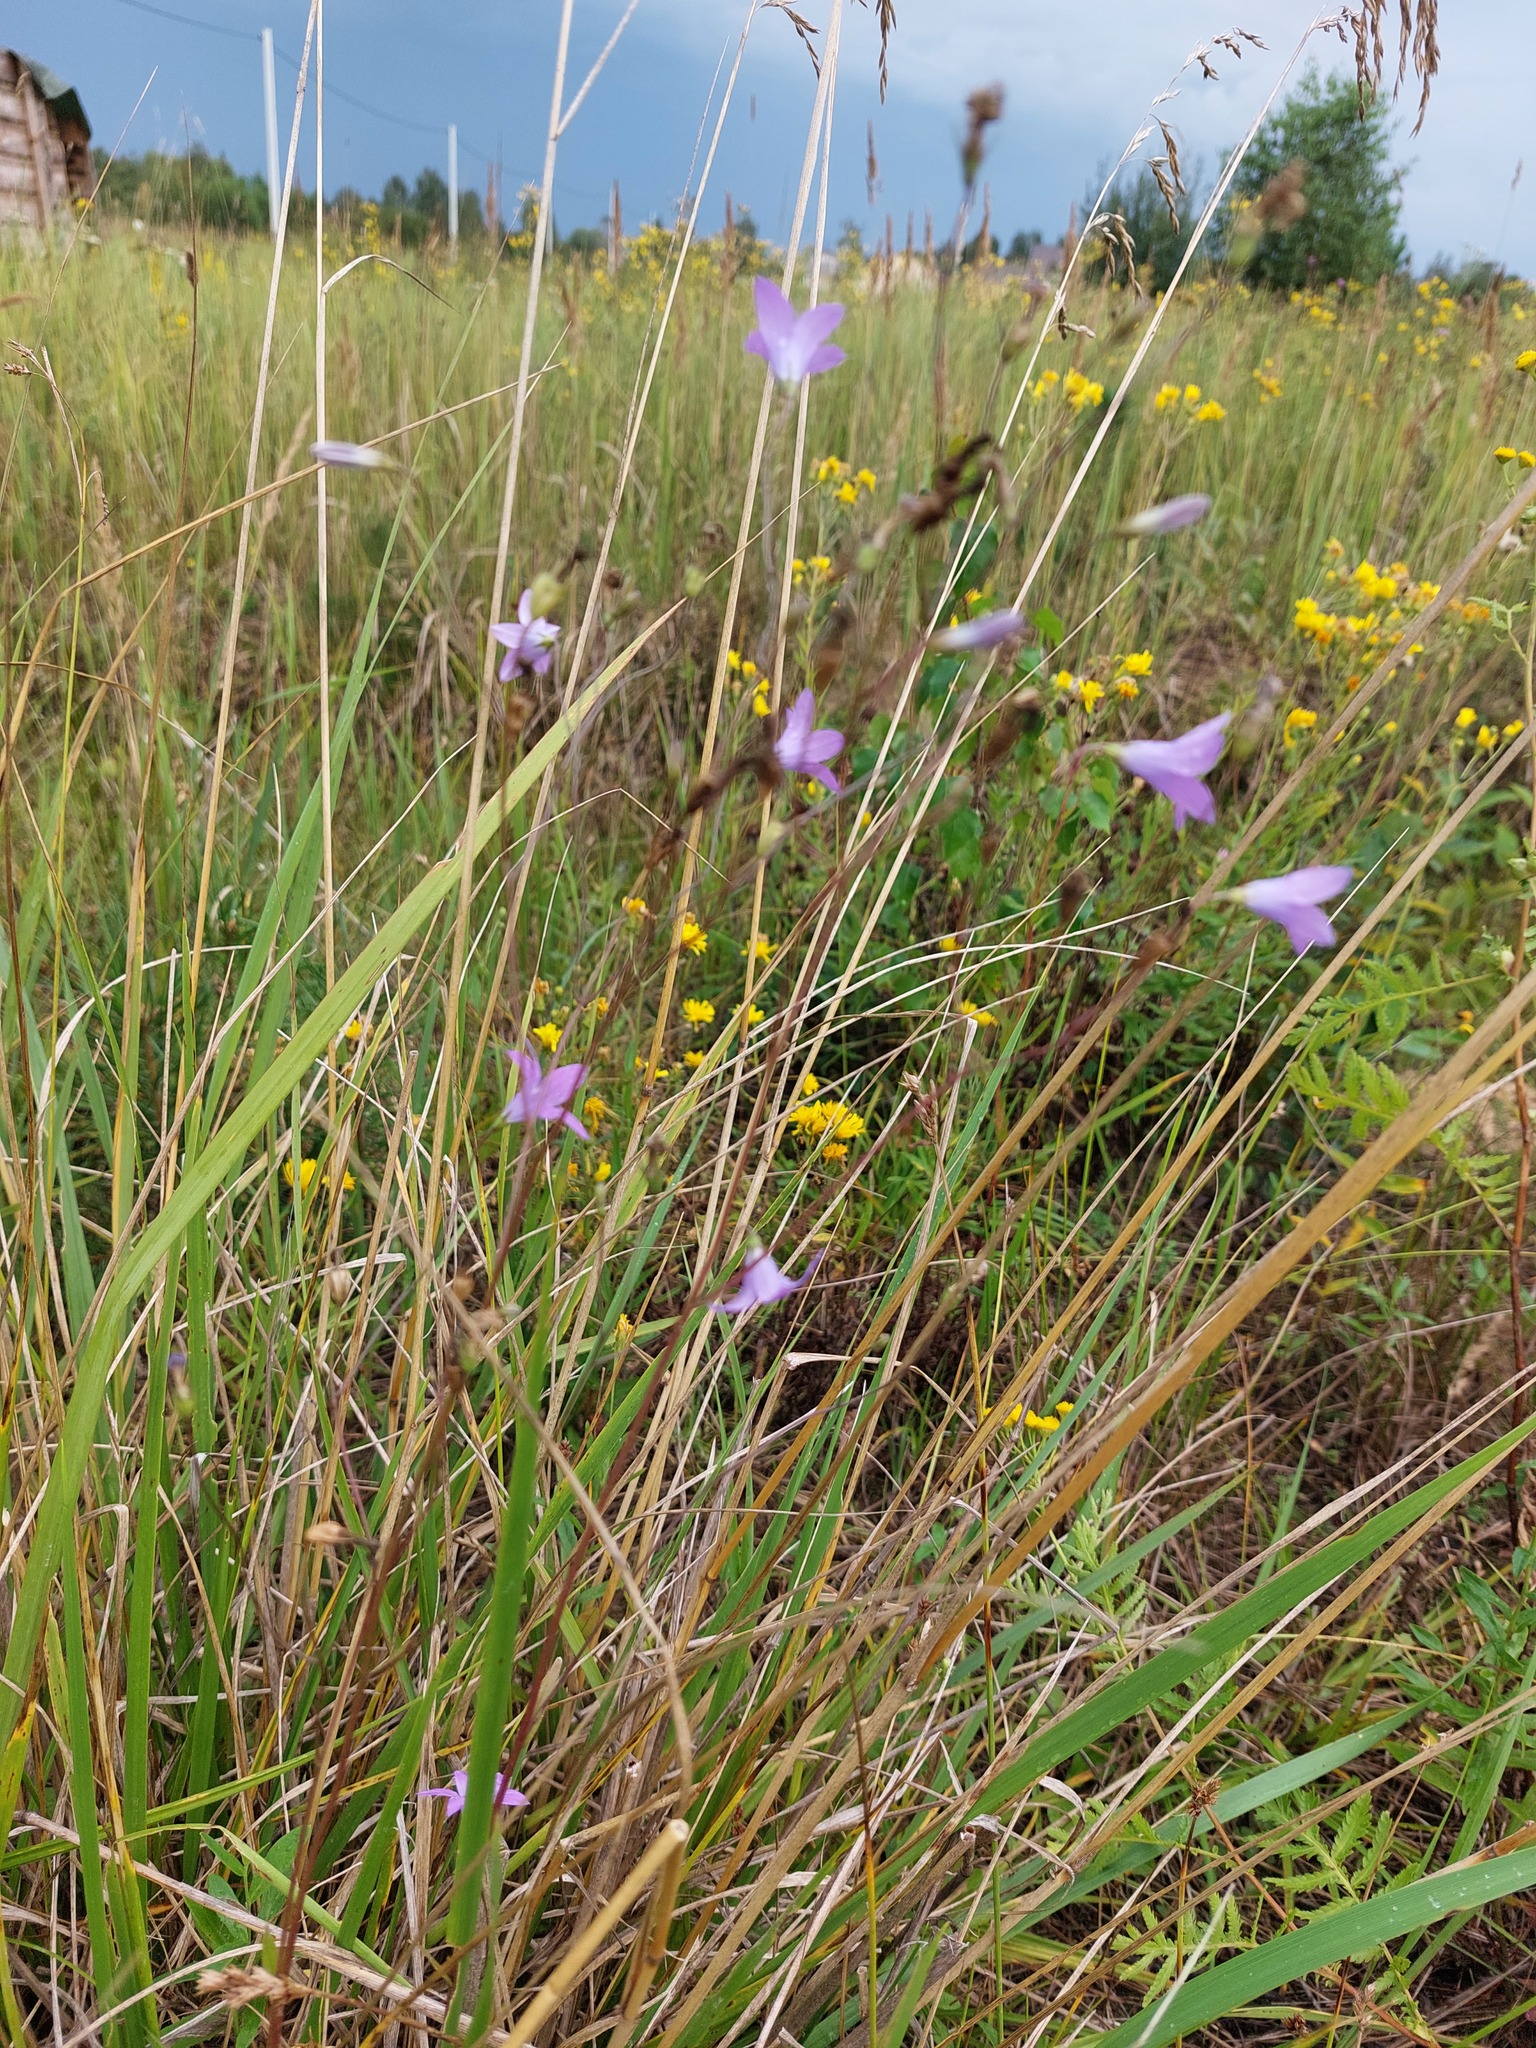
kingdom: Plantae
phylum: Tracheophyta
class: Magnoliopsida
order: Asterales
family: Campanulaceae
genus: Campanula
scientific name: Campanula patula
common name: Spreading bellflower
